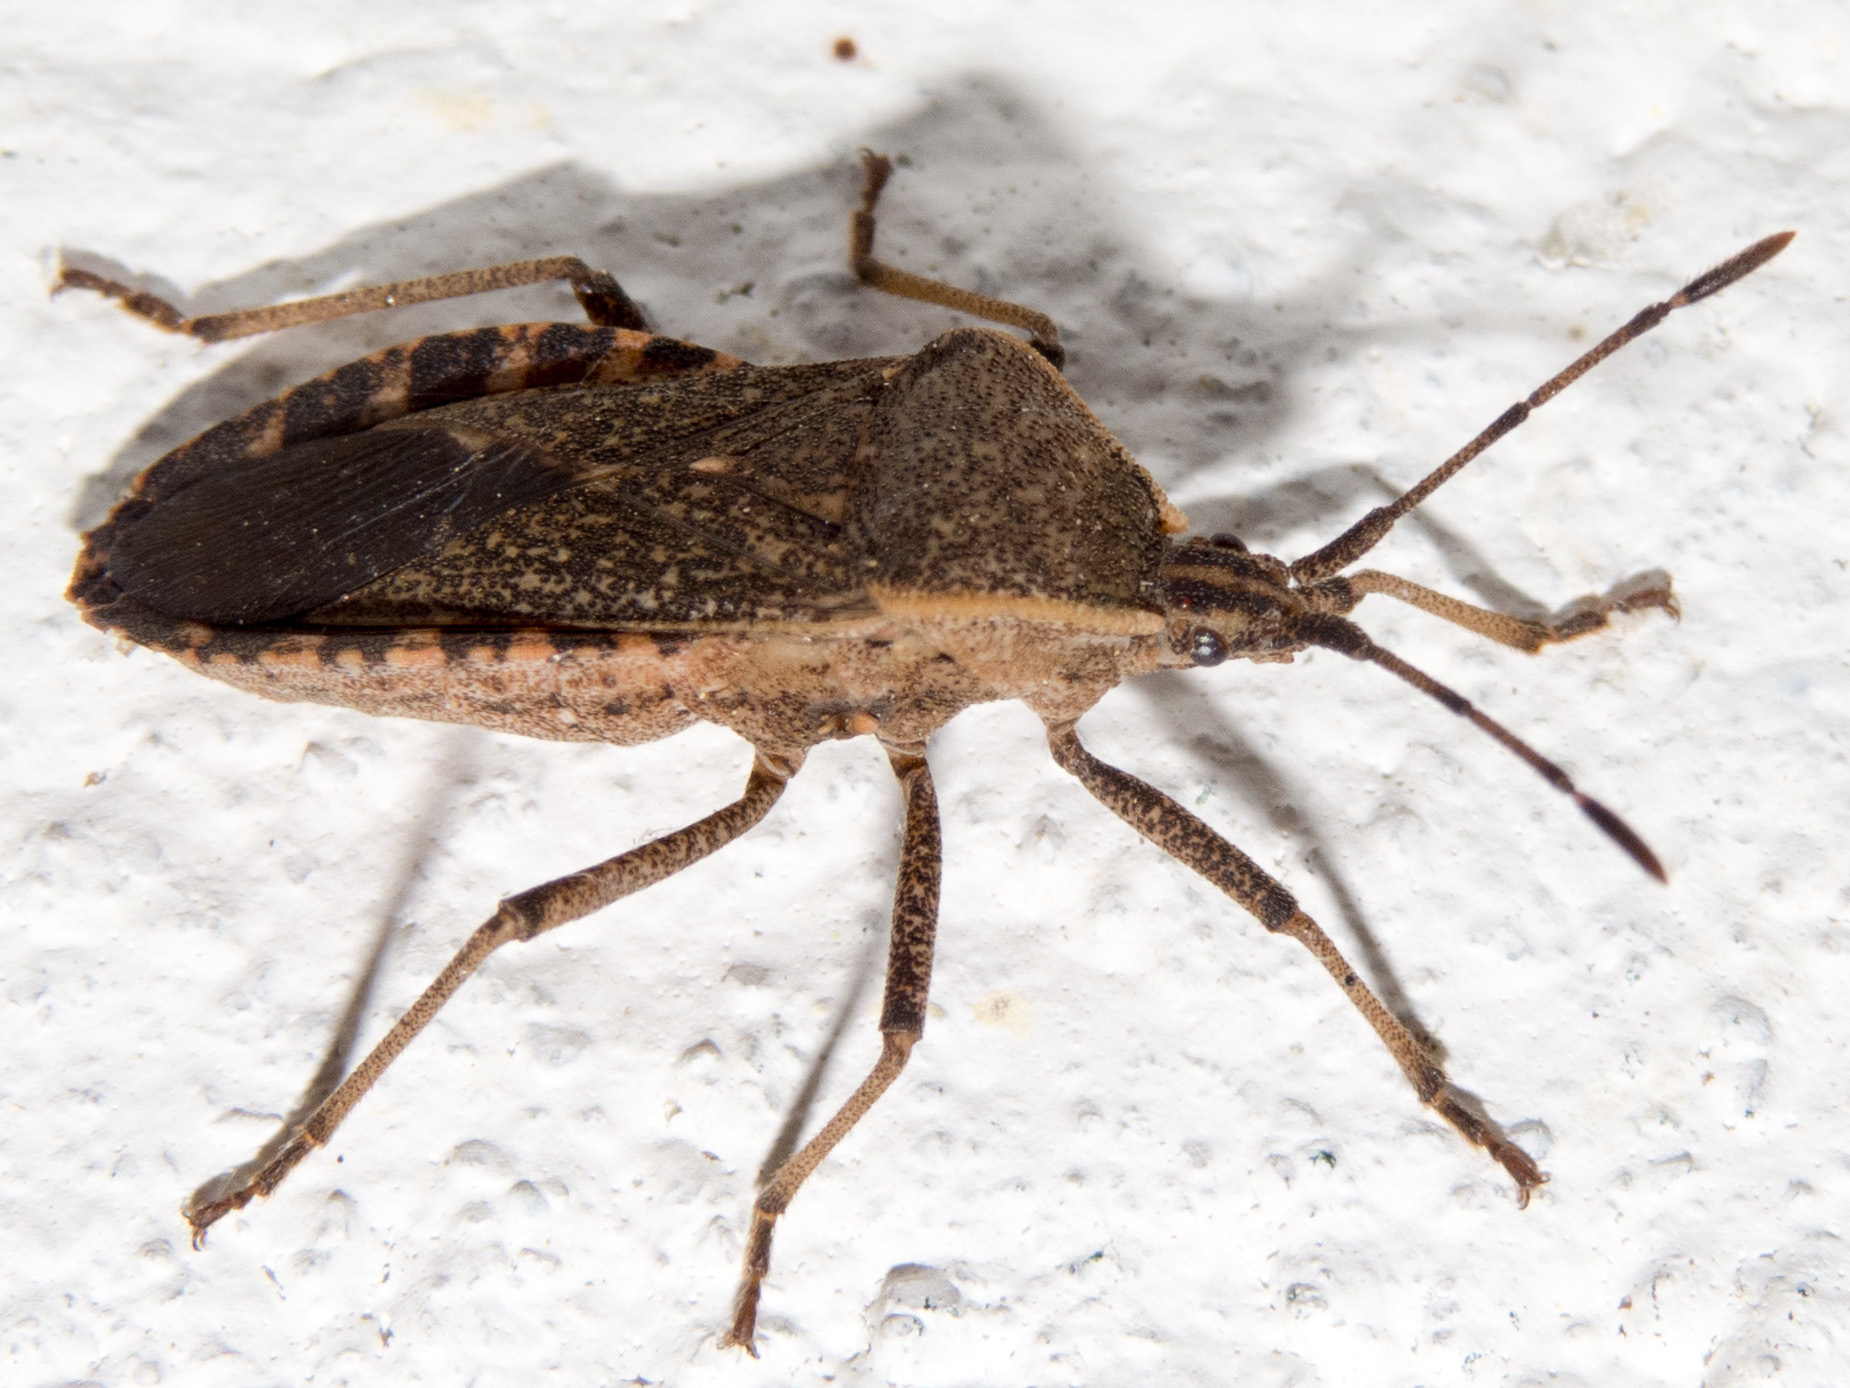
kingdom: Animalia
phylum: Arthropoda
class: Insecta
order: Hemiptera
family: Coreidae
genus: Anasa
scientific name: Anasa tristis
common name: Squash bug
